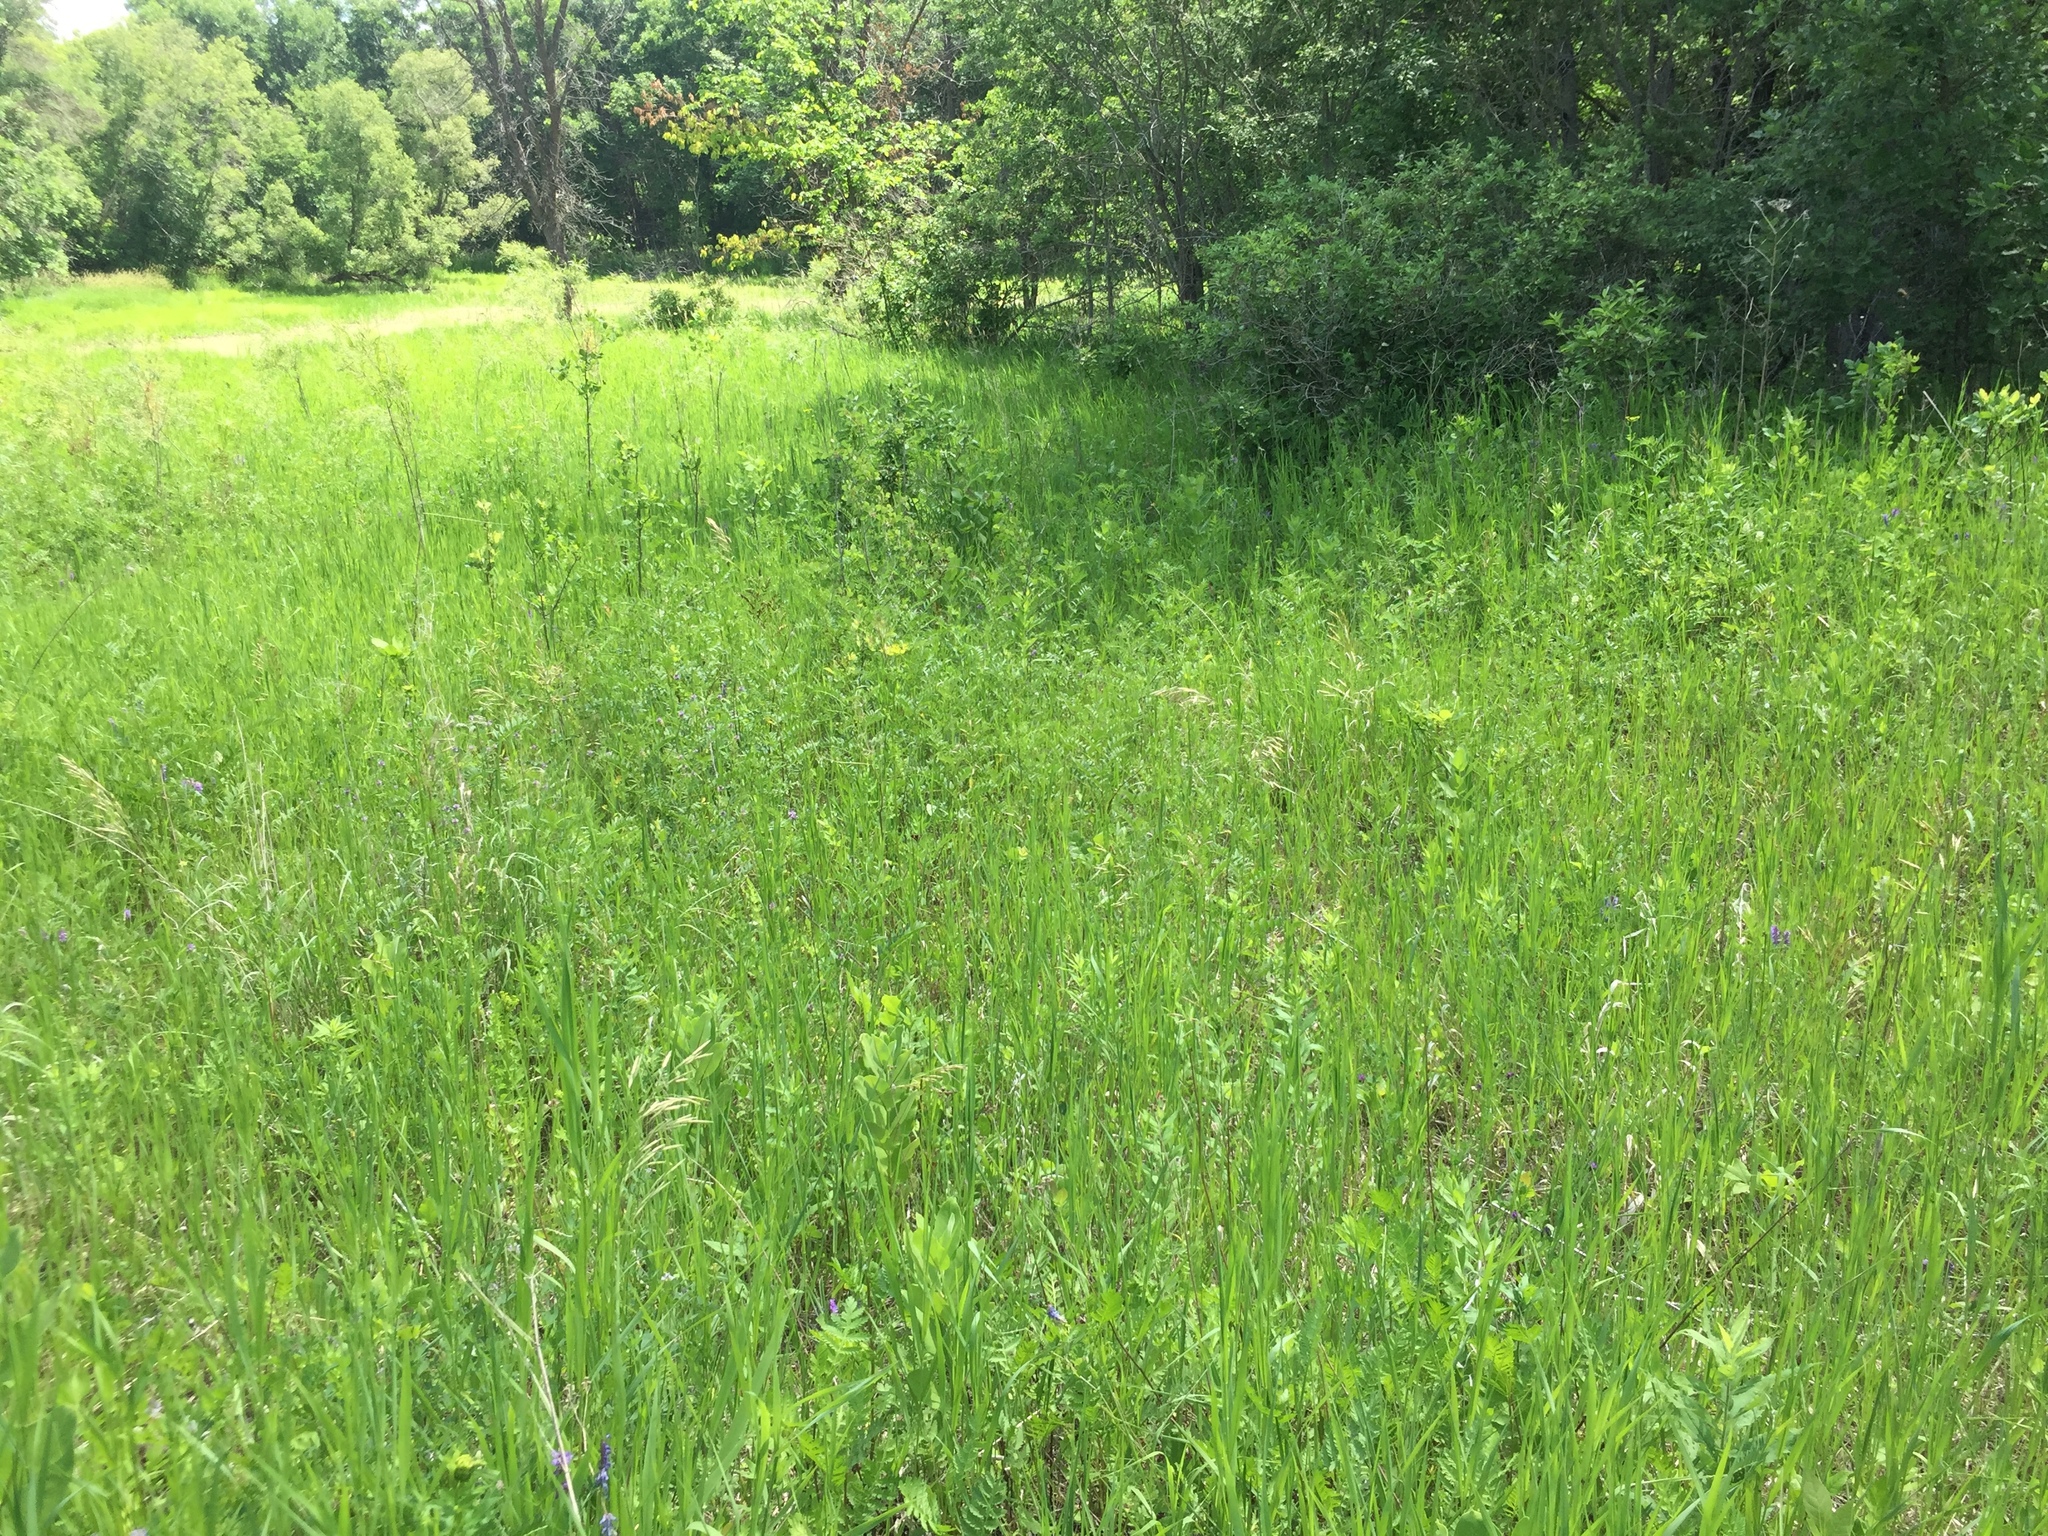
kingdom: Animalia
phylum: Arthropoda
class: Insecta
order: Lepidoptera
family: Hesperiidae
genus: Epargyreus
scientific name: Epargyreus clarus
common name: Silver-spotted skipper
